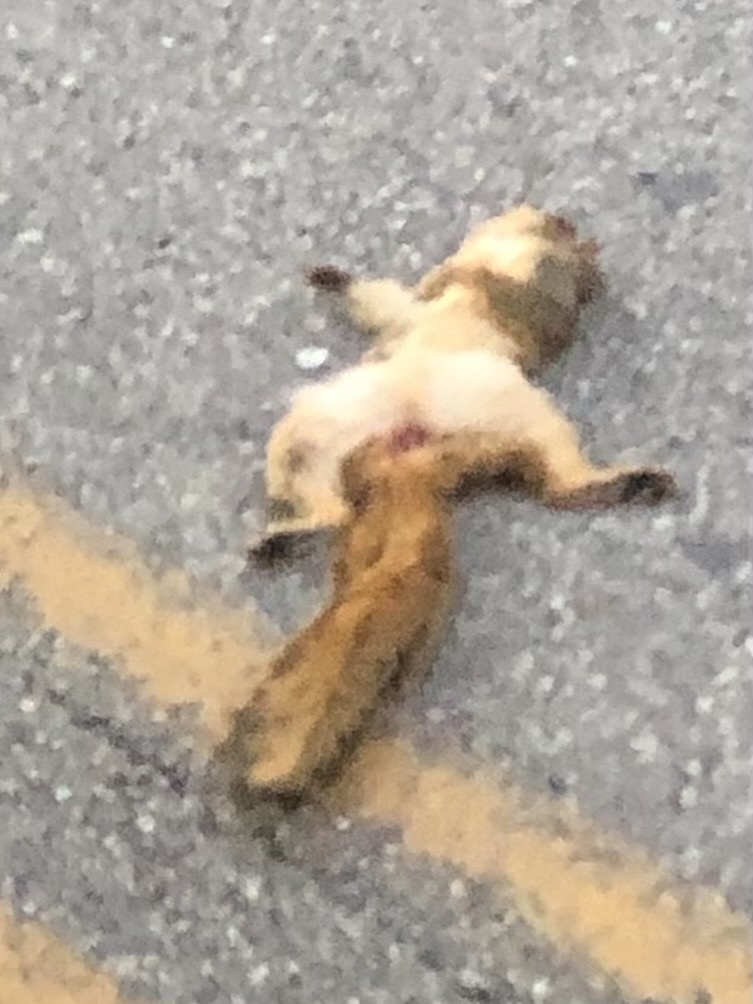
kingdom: Animalia
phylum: Chordata
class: Mammalia
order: Rodentia
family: Sciuridae
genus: Sciurus
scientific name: Sciurus niger
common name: Fox squirrel
